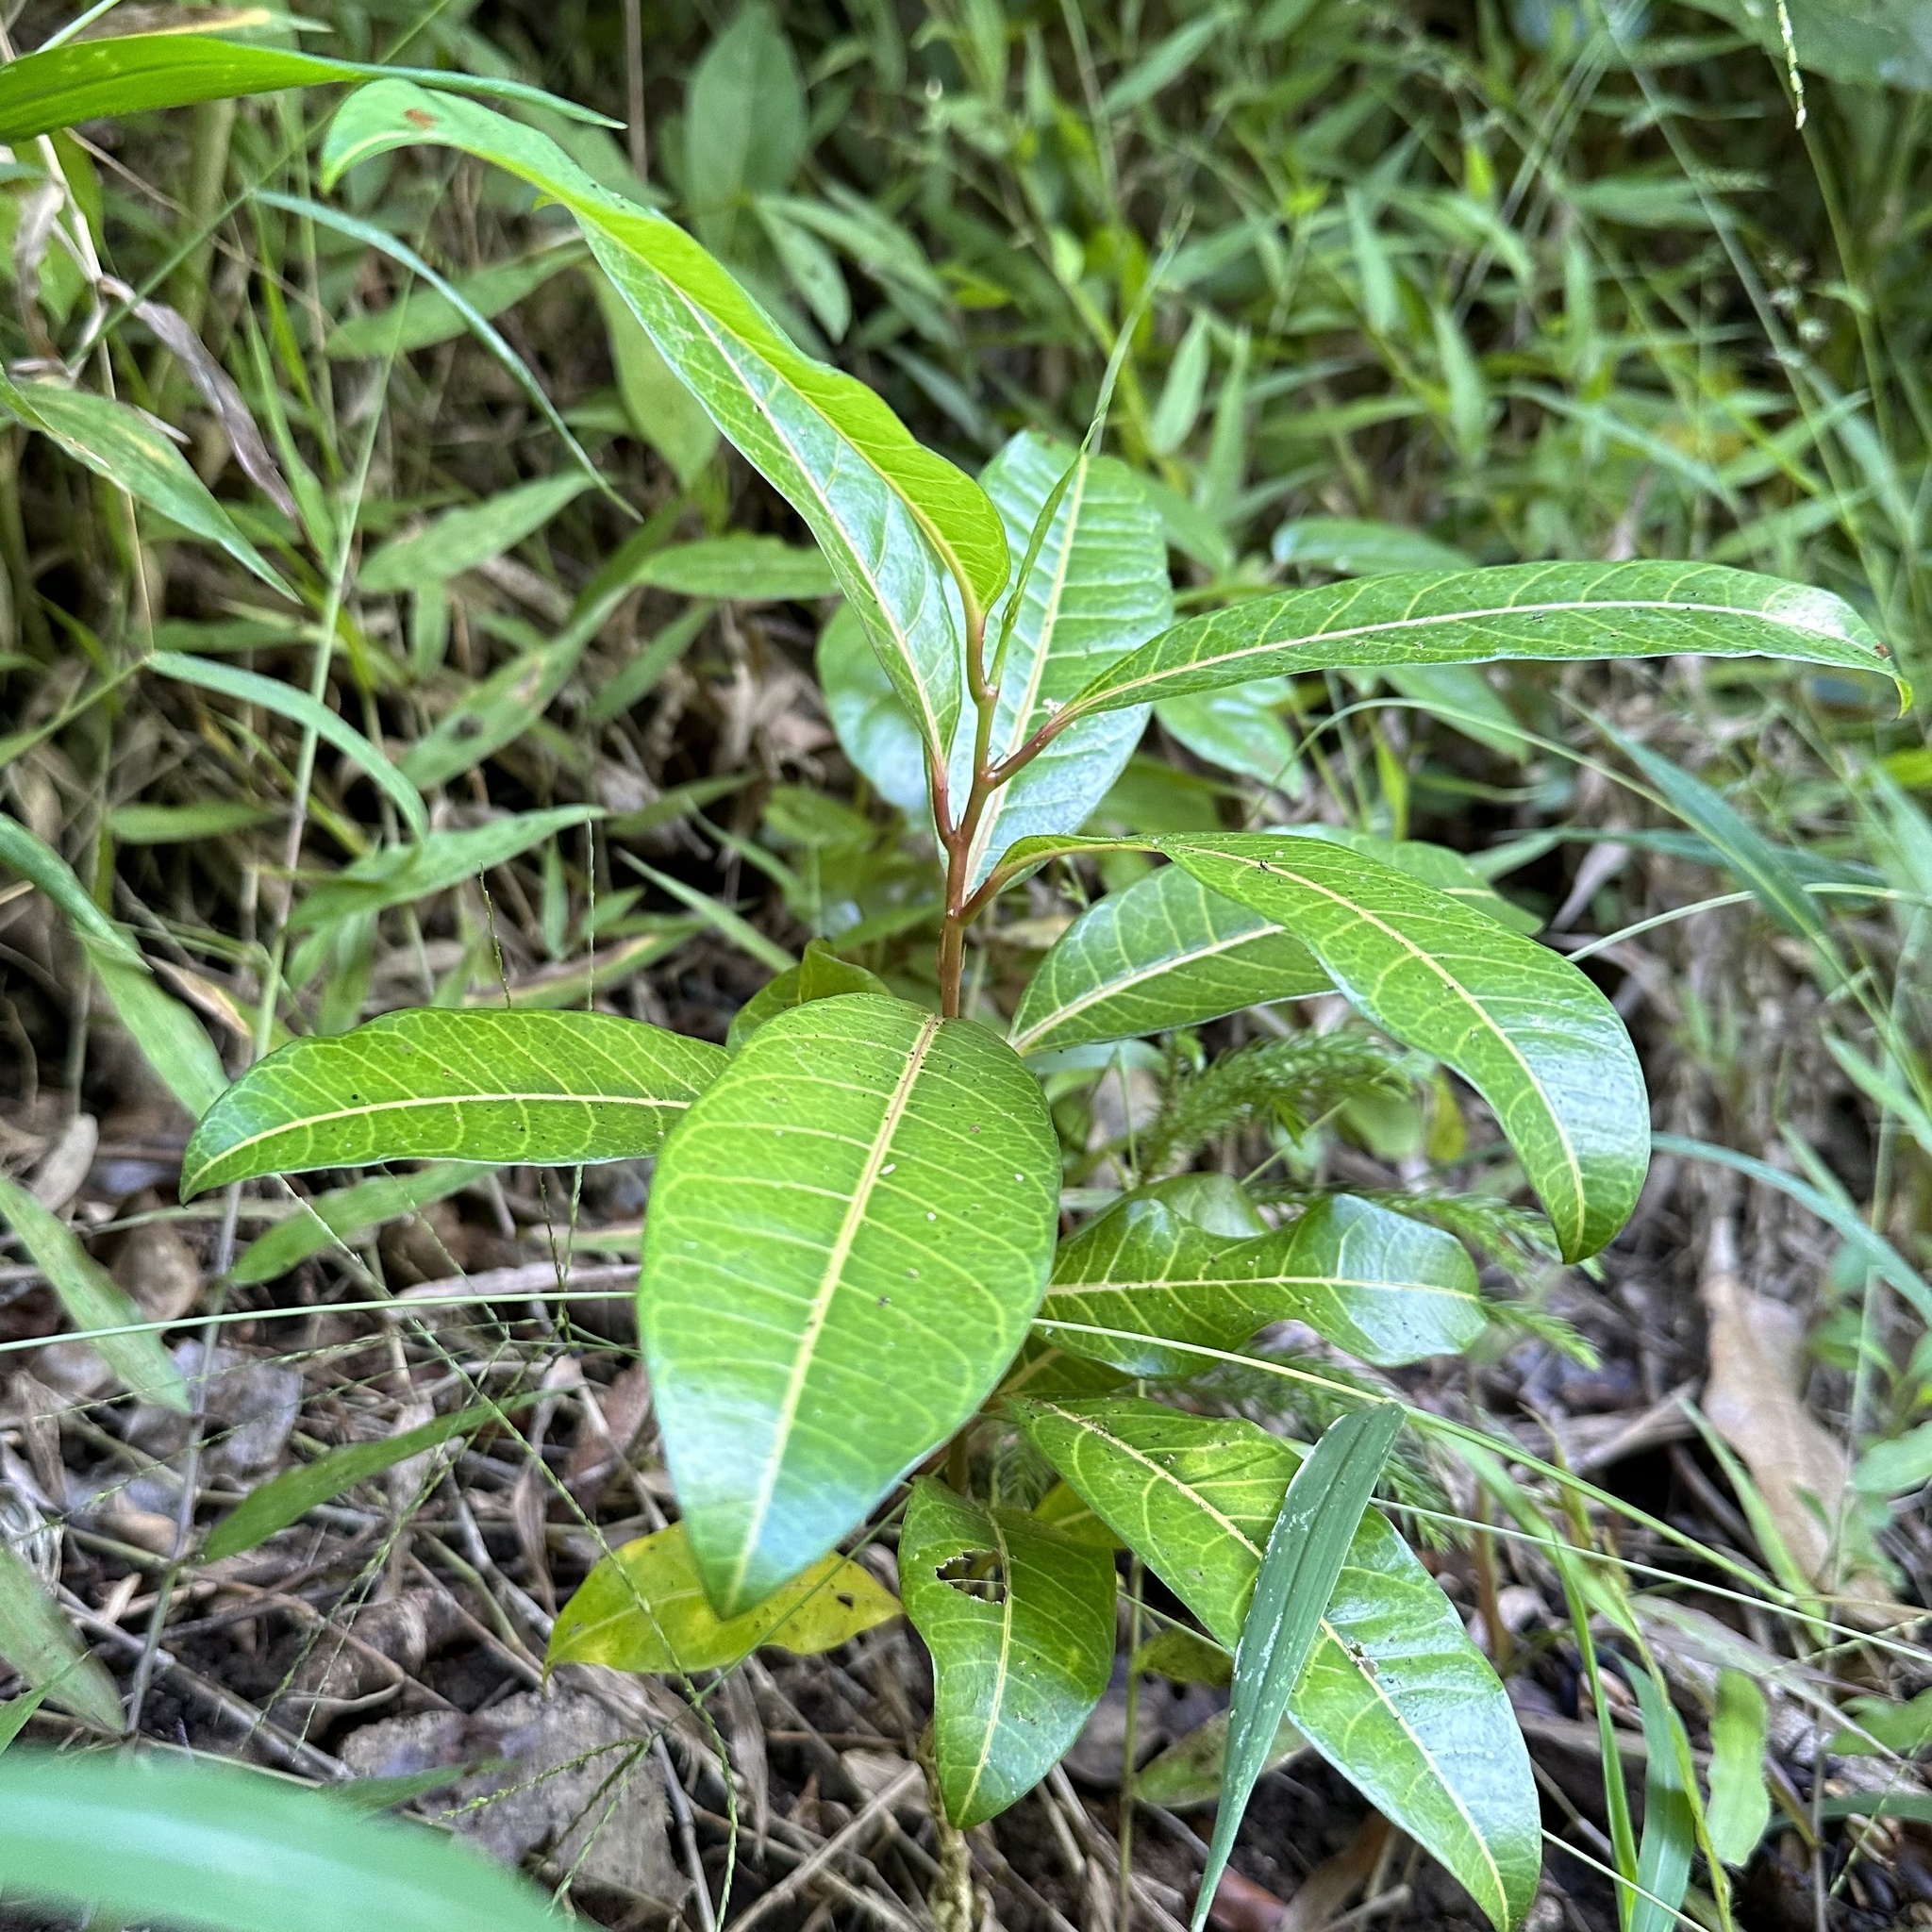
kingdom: Plantae
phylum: Tracheophyta
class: Magnoliopsida
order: Malpighiales
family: Passifloraceae
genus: Passiflora
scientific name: Passiflora laurifolia
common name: Bell apple
